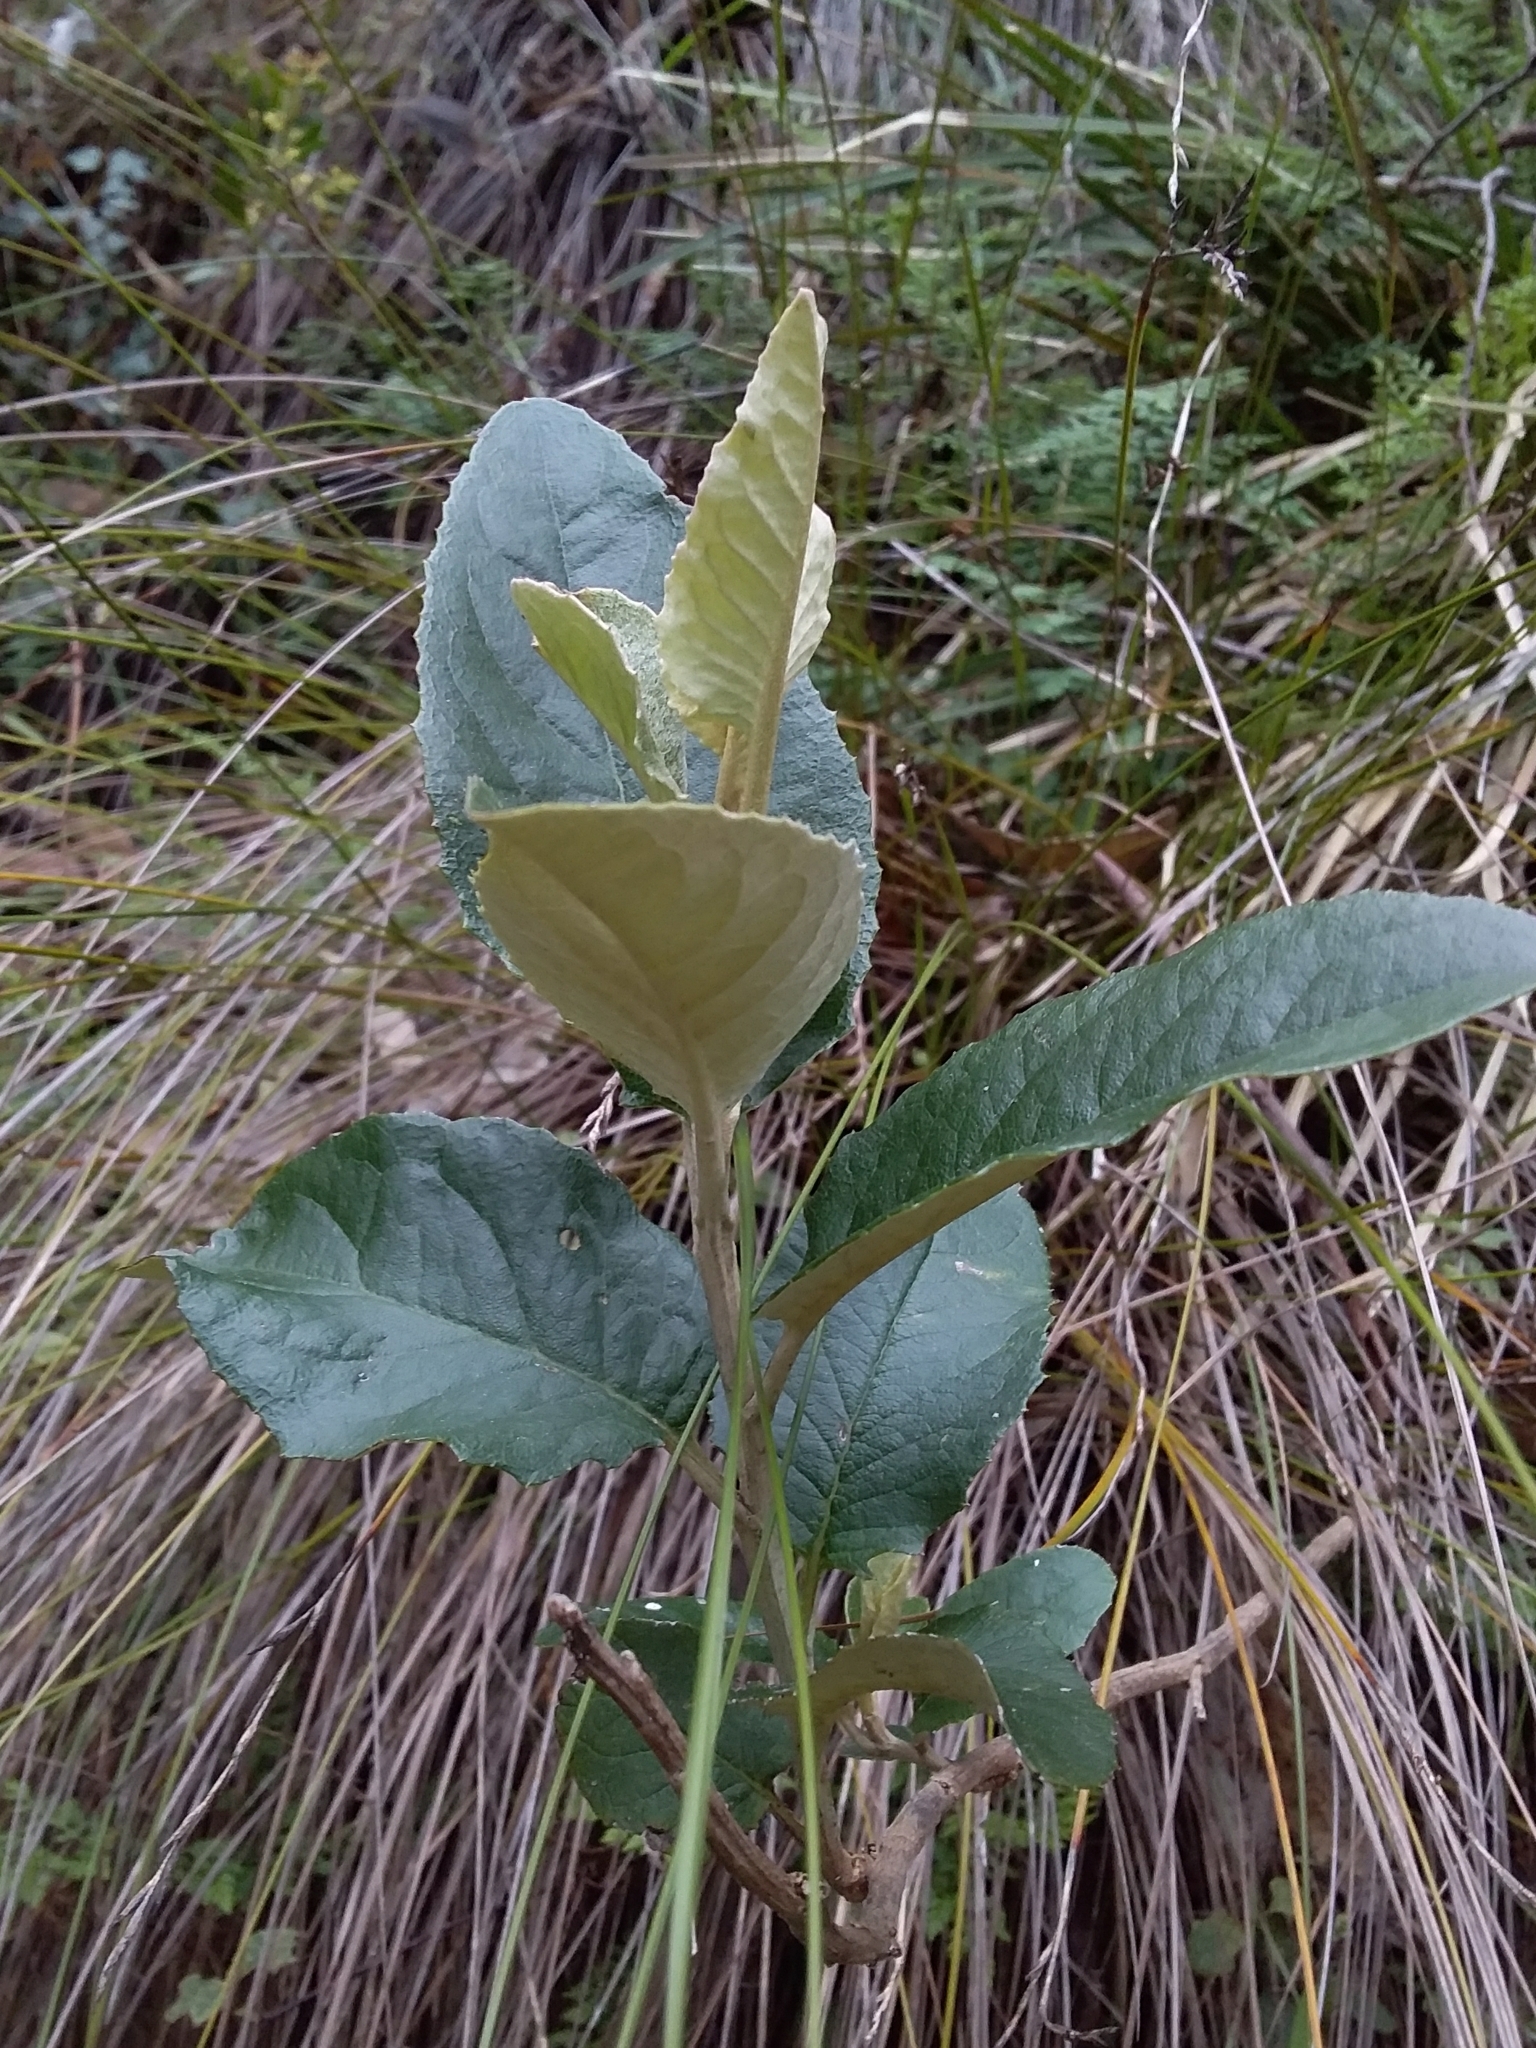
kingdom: Plantae
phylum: Tracheophyta
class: Magnoliopsida
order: Asterales
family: Asteraceae
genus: Olearia
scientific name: Olearia grandiflora
